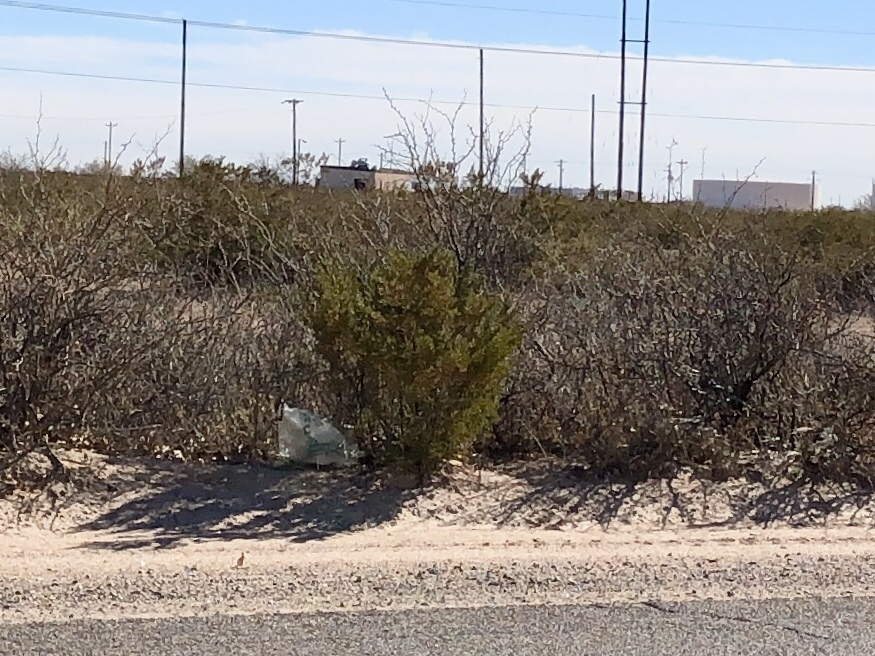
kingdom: Plantae
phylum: Tracheophyta
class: Magnoliopsida
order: Zygophyllales
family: Zygophyllaceae
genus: Larrea
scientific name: Larrea tridentata
